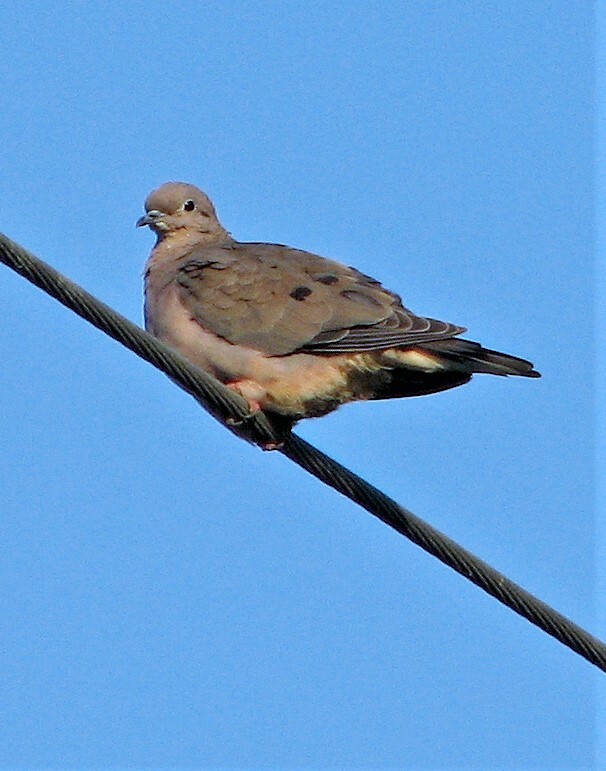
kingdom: Animalia
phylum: Chordata
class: Aves
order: Columbiformes
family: Columbidae
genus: Zenaida
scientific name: Zenaida auriculata
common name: Eared dove
